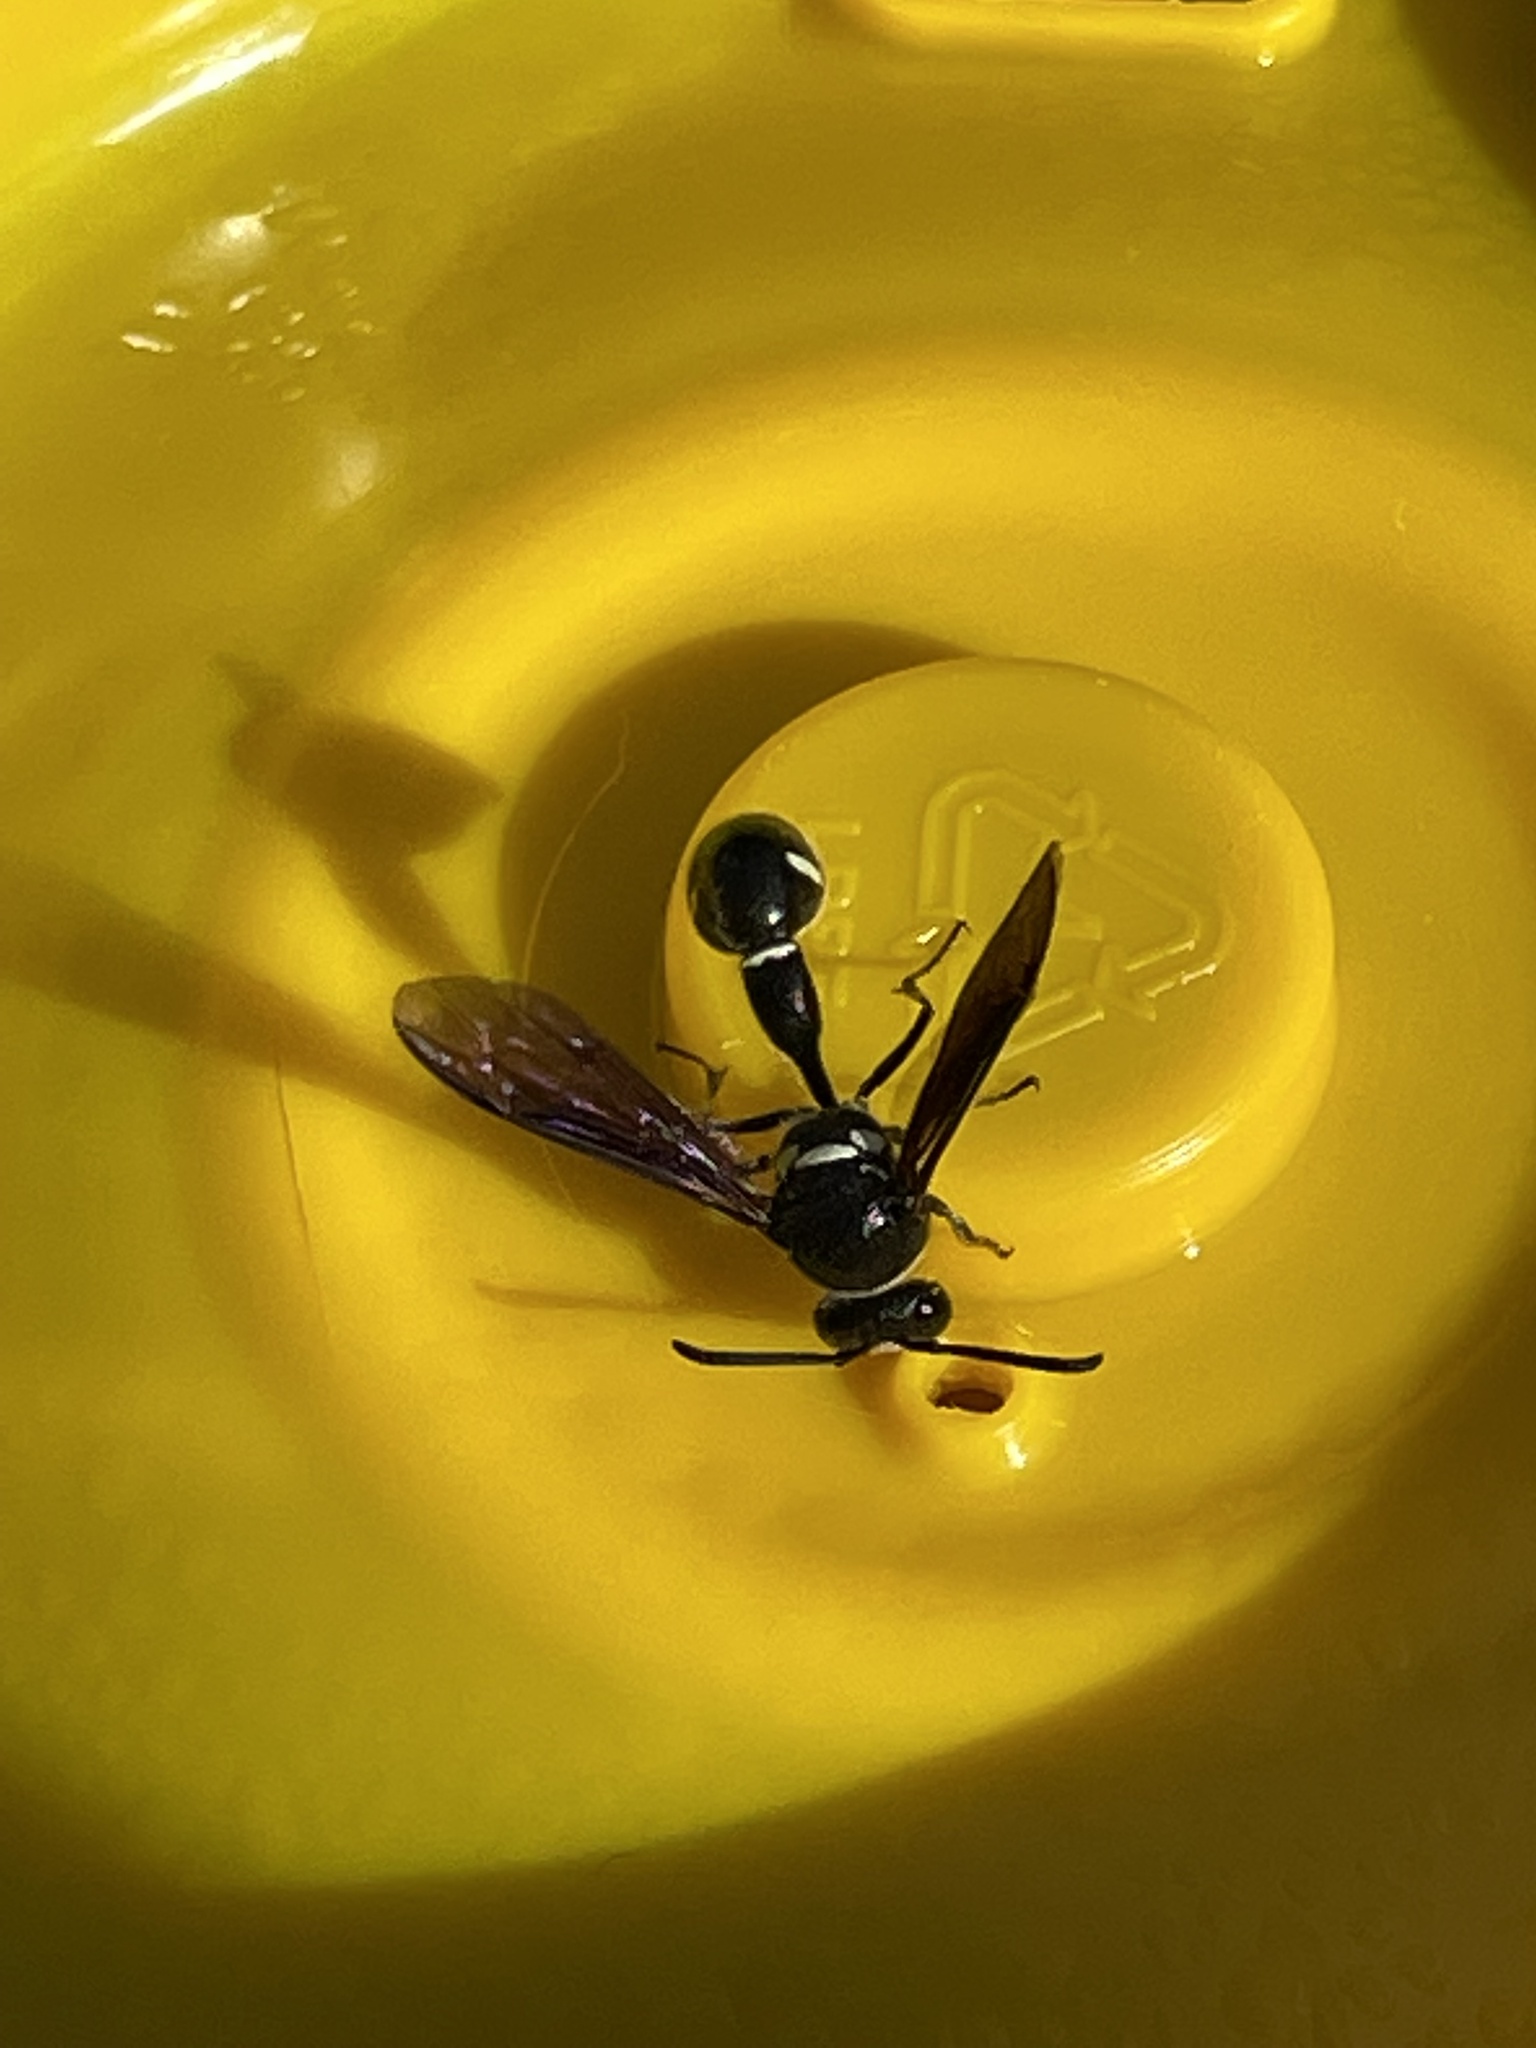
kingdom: Animalia
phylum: Arthropoda
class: Insecta
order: Hymenoptera
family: Vespidae
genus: Eumenes
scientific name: Eumenes fraternus
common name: Fraternal potter wasp
